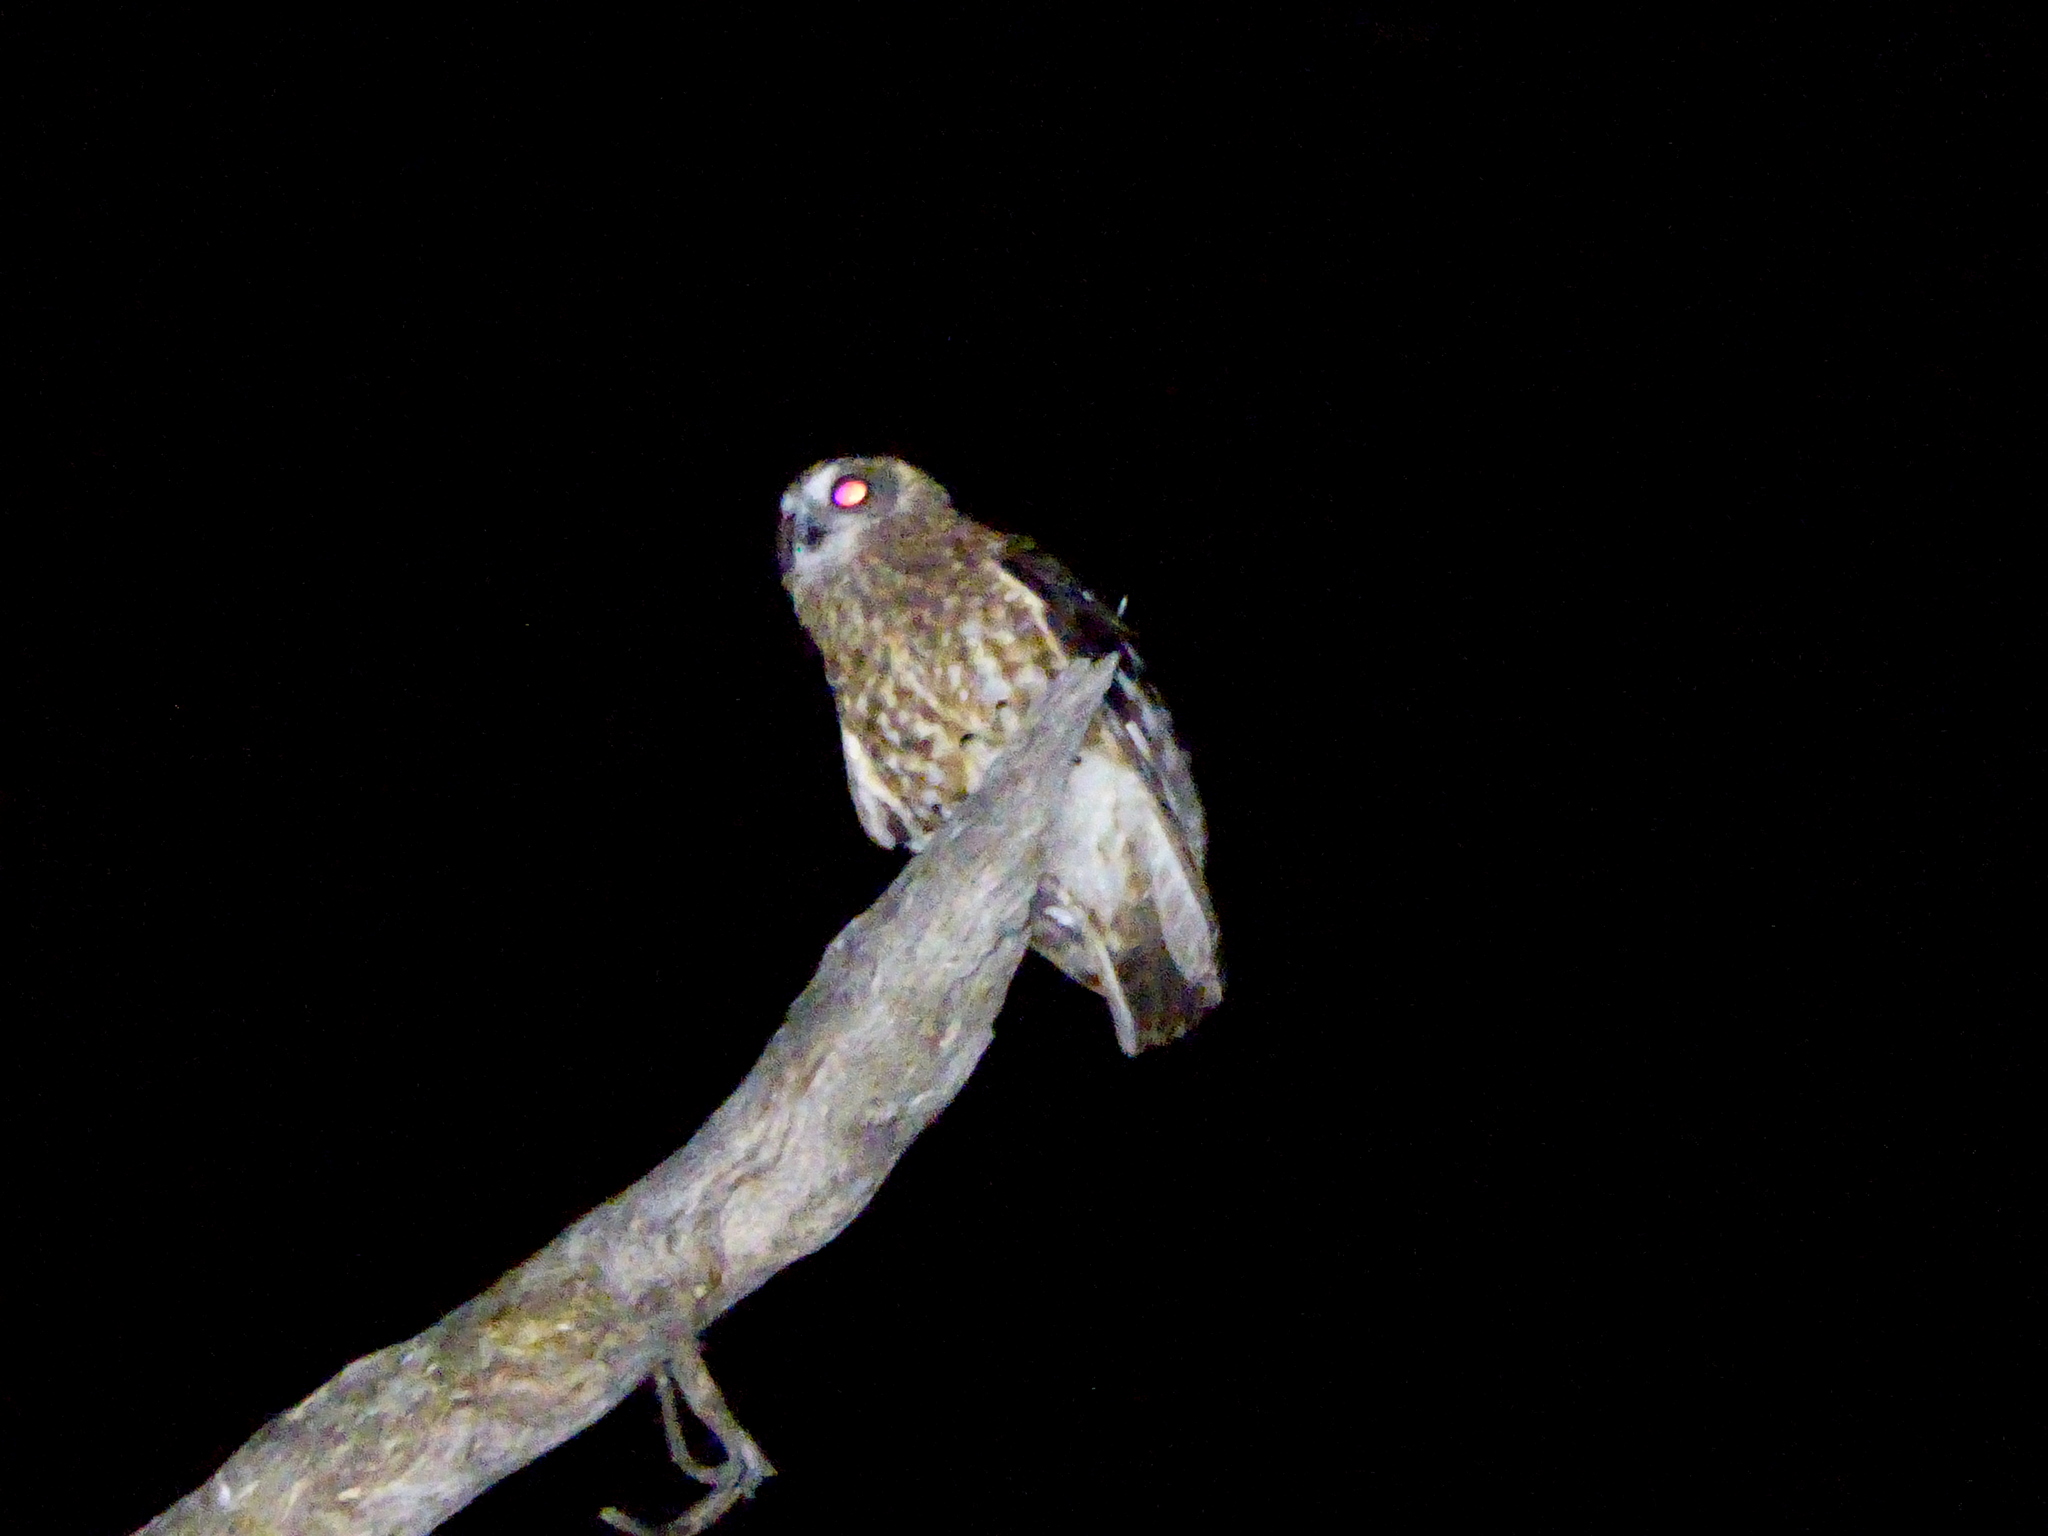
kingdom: Animalia
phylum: Chordata
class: Aves
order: Strigiformes
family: Strigidae
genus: Ninox
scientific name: Ninox boobook
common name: Southern boobook
